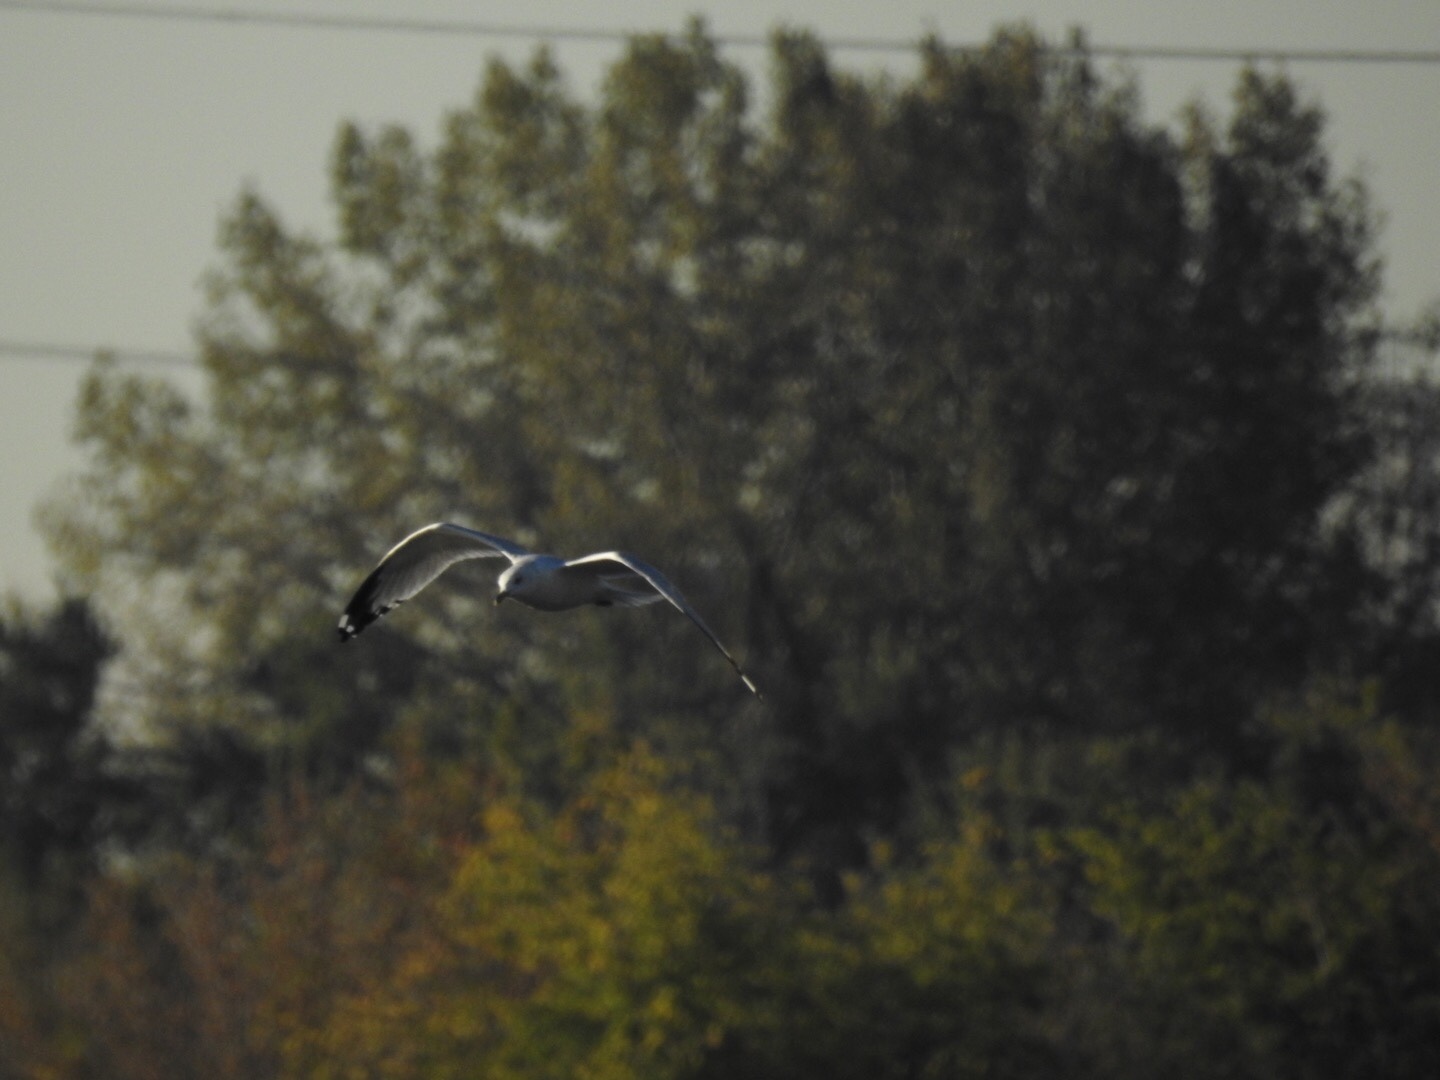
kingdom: Animalia
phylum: Chordata
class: Aves
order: Charadriiformes
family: Laridae
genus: Larus
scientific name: Larus delawarensis
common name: Ring-billed gull
